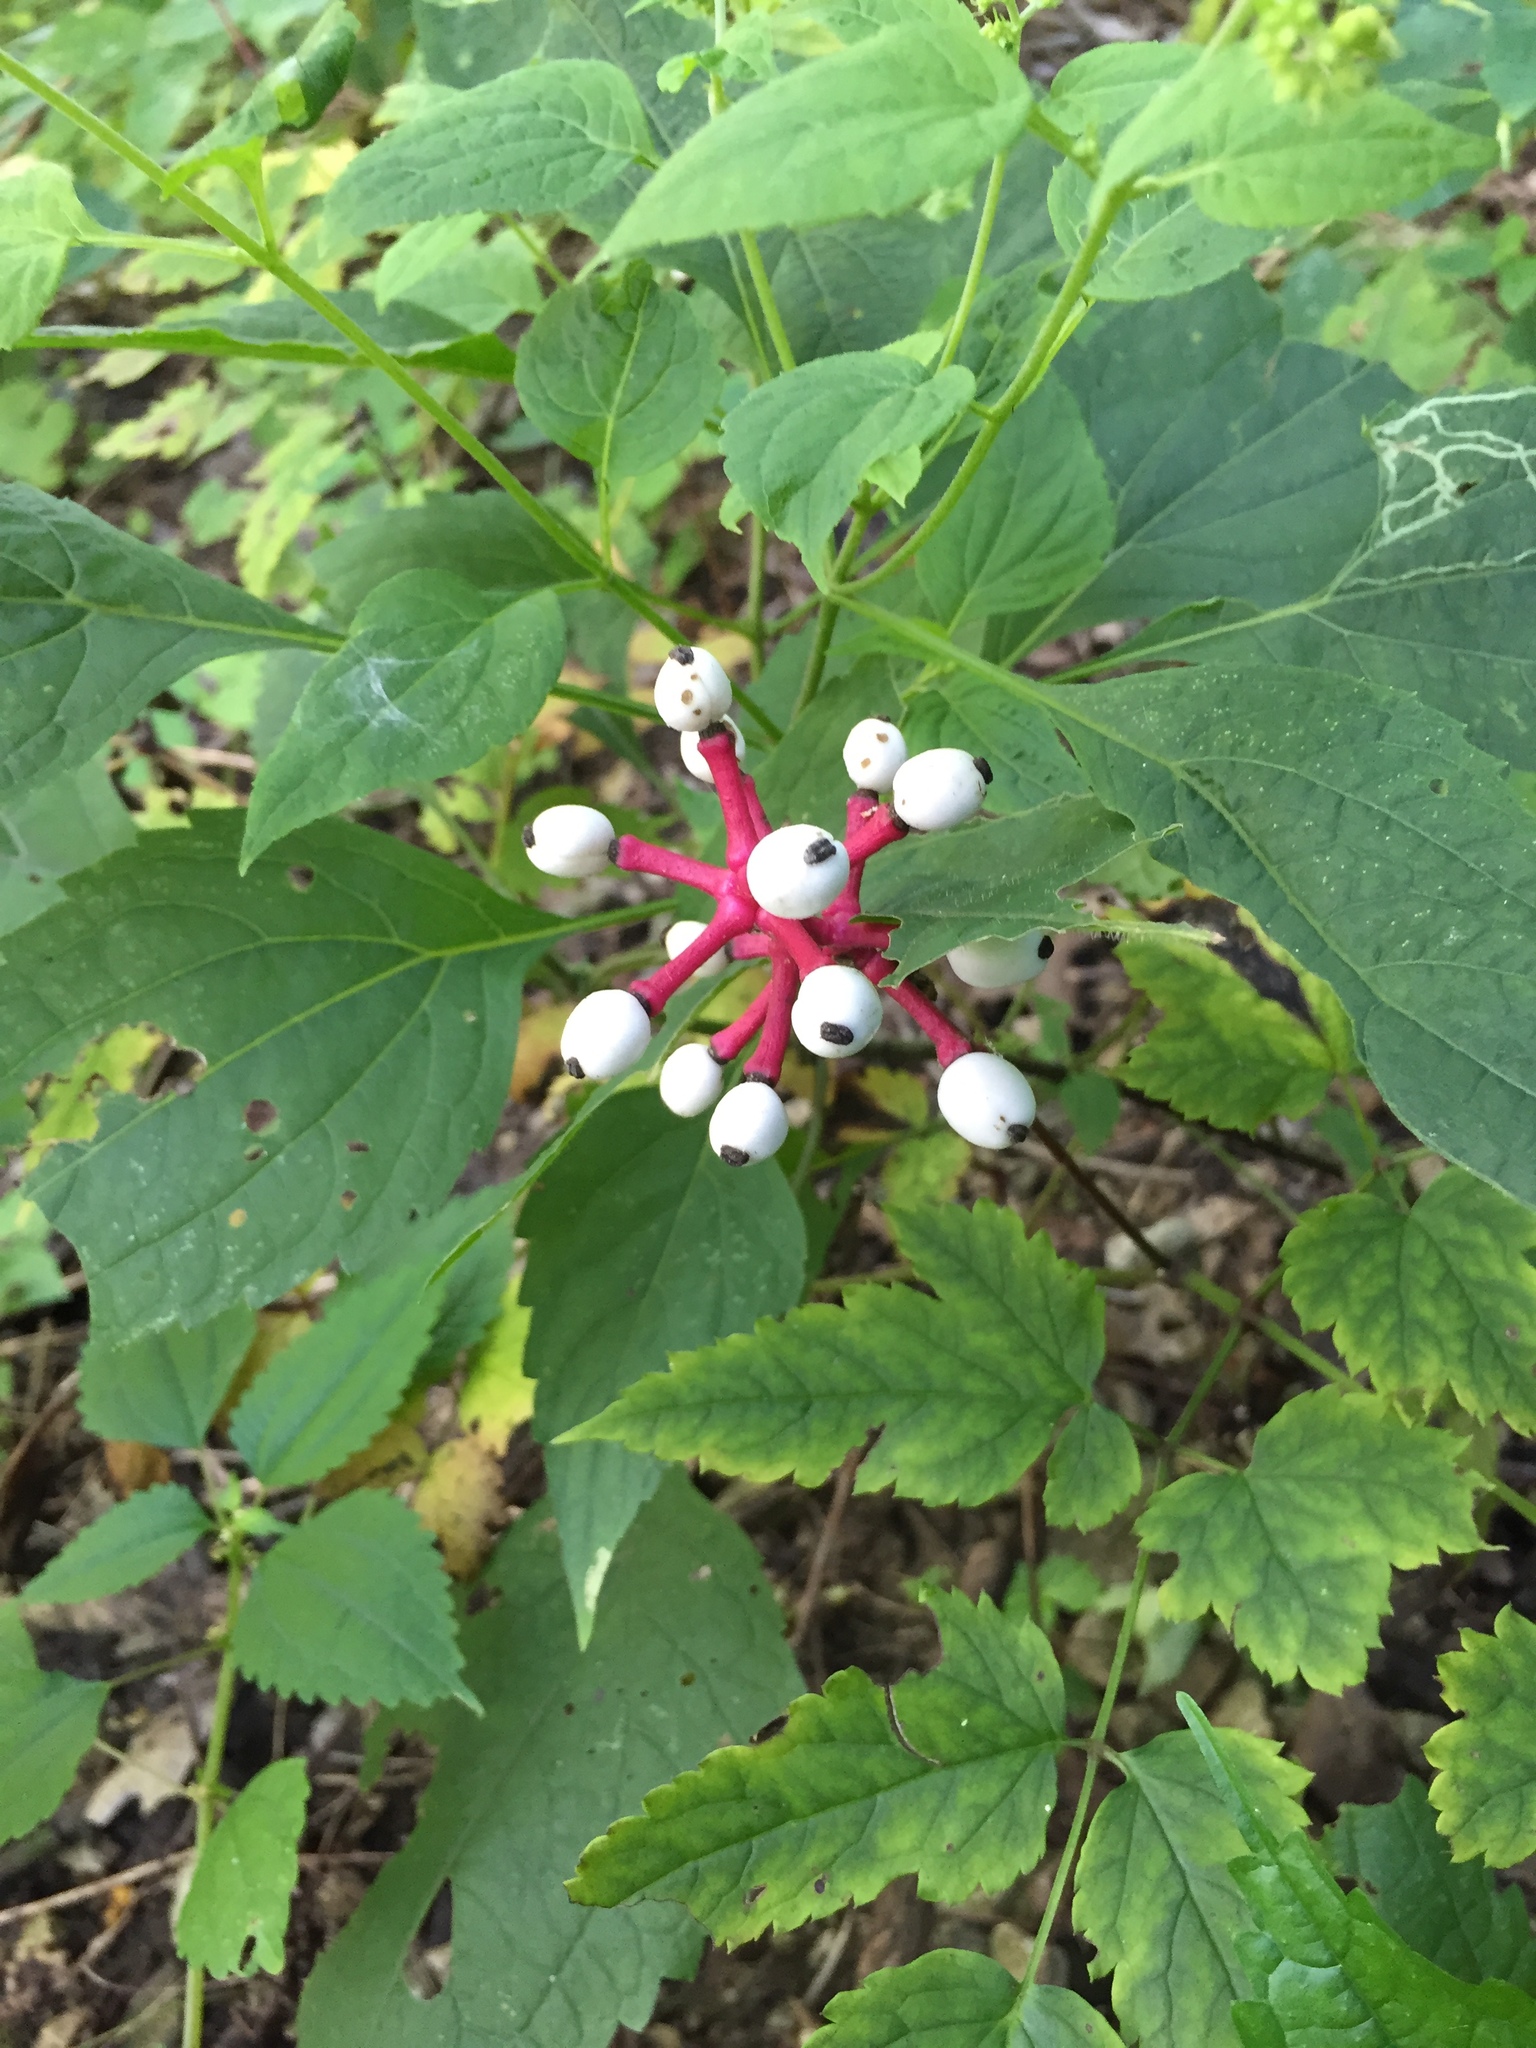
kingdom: Plantae
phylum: Tracheophyta
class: Magnoliopsida
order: Ranunculales
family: Ranunculaceae
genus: Actaea
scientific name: Actaea pachypoda
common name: Doll's-eyes
